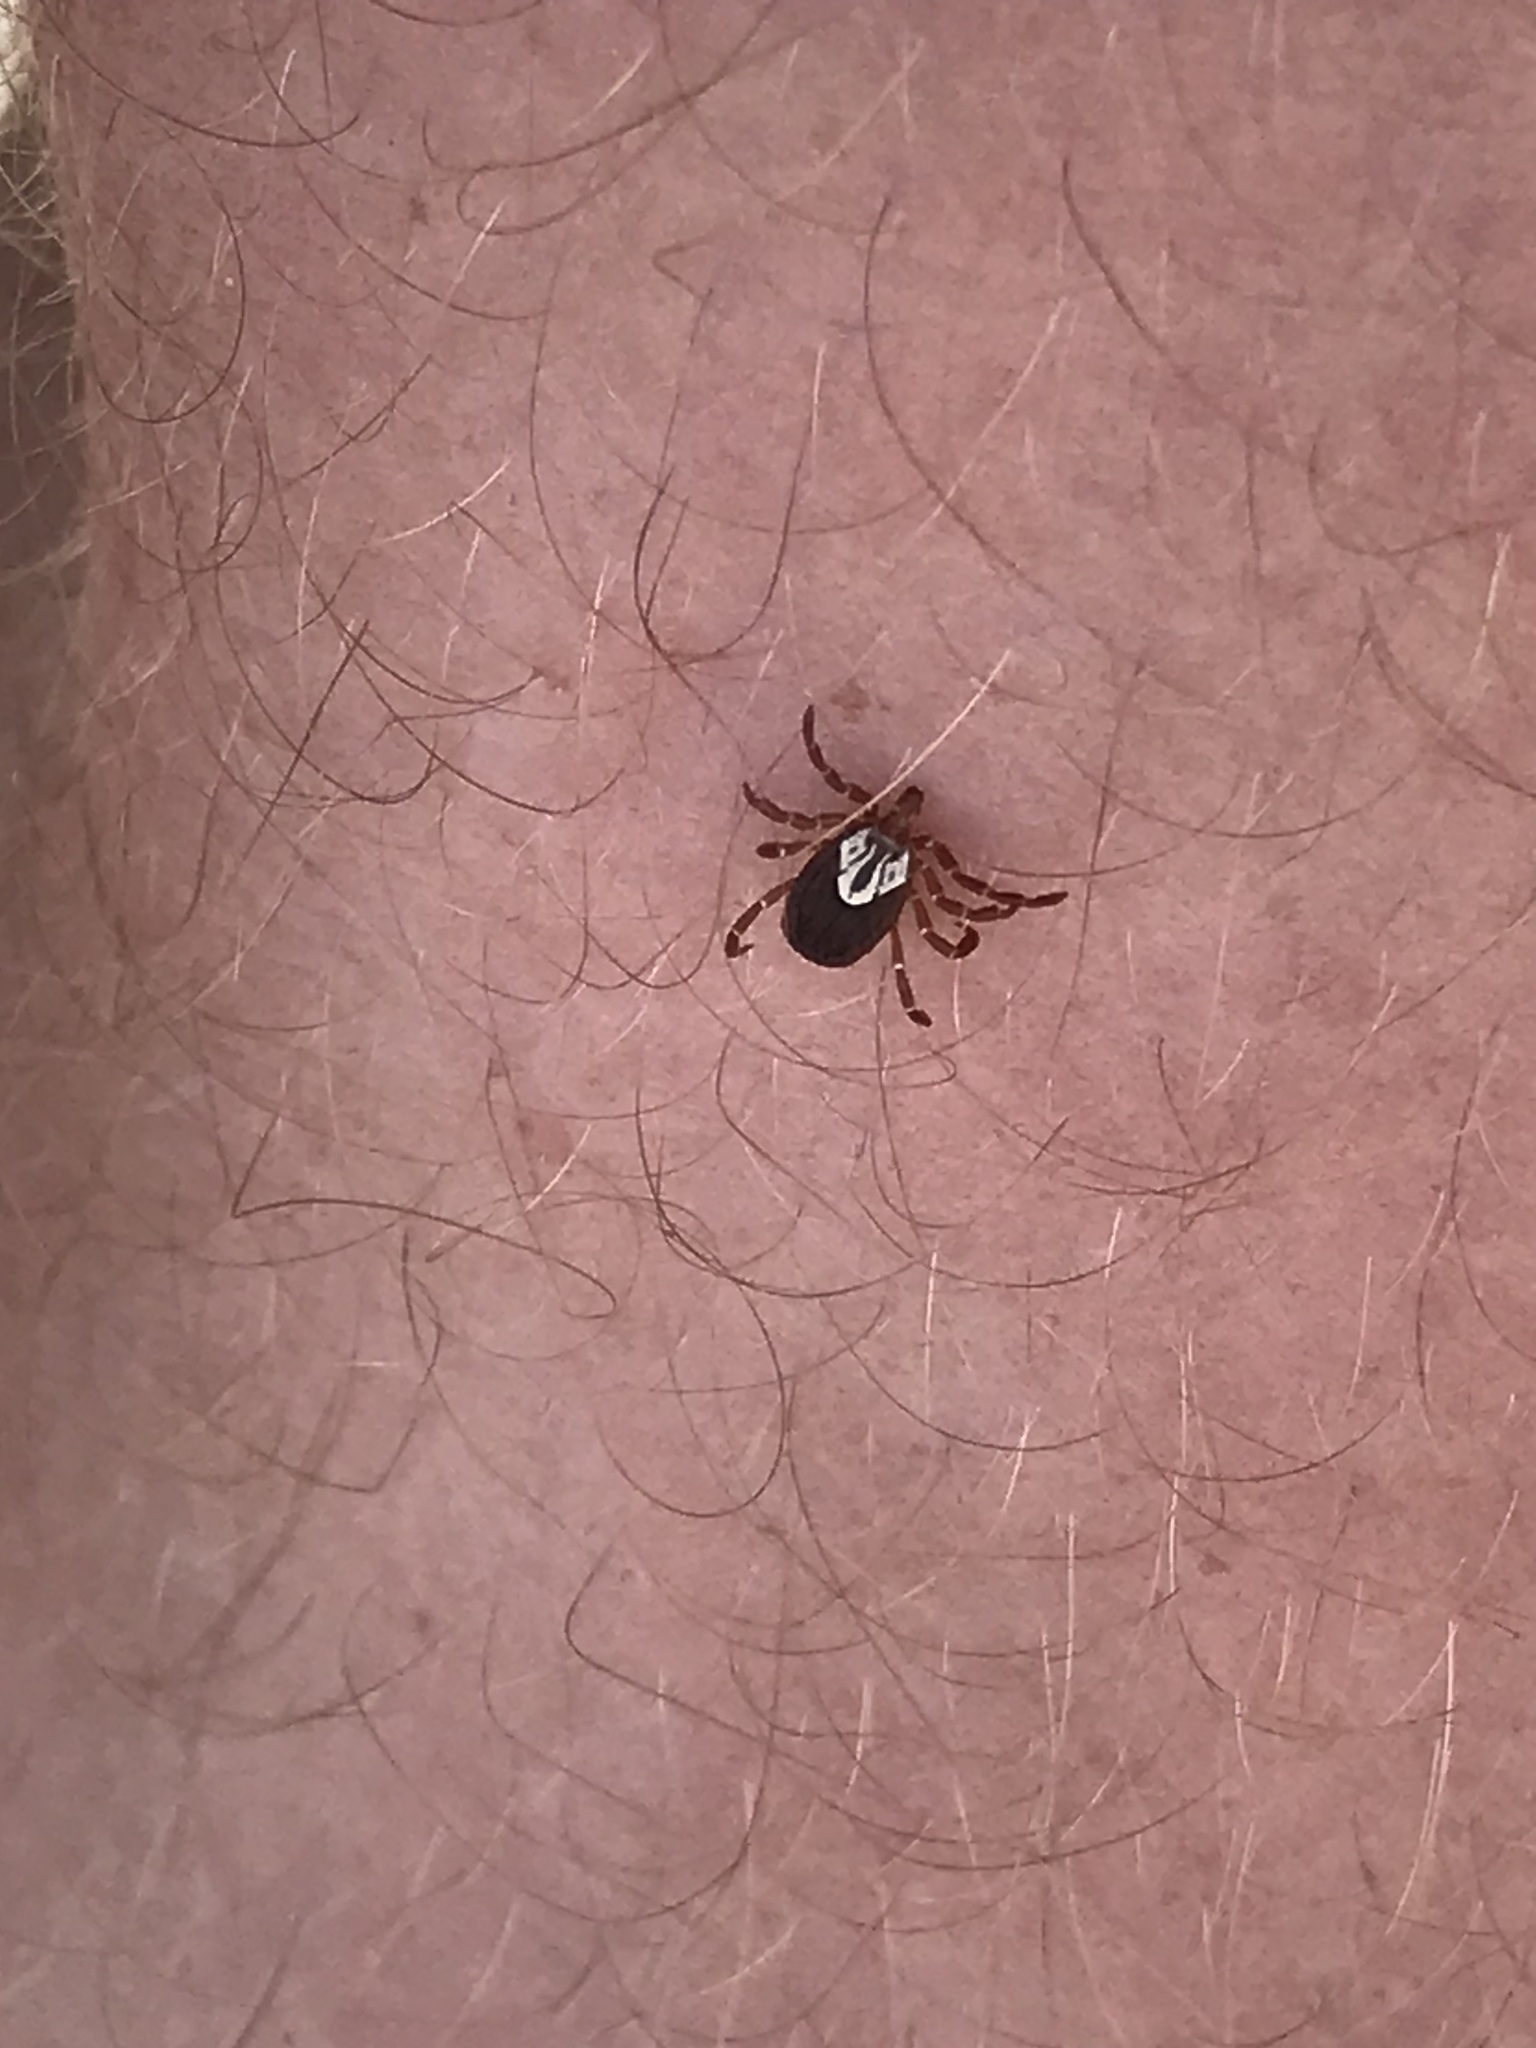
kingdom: Animalia
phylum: Arthropoda
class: Arachnida
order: Ixodida
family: Ixodidae
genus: Amblyomma
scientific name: Amblyomma maculatum
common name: Gulf coast tick
